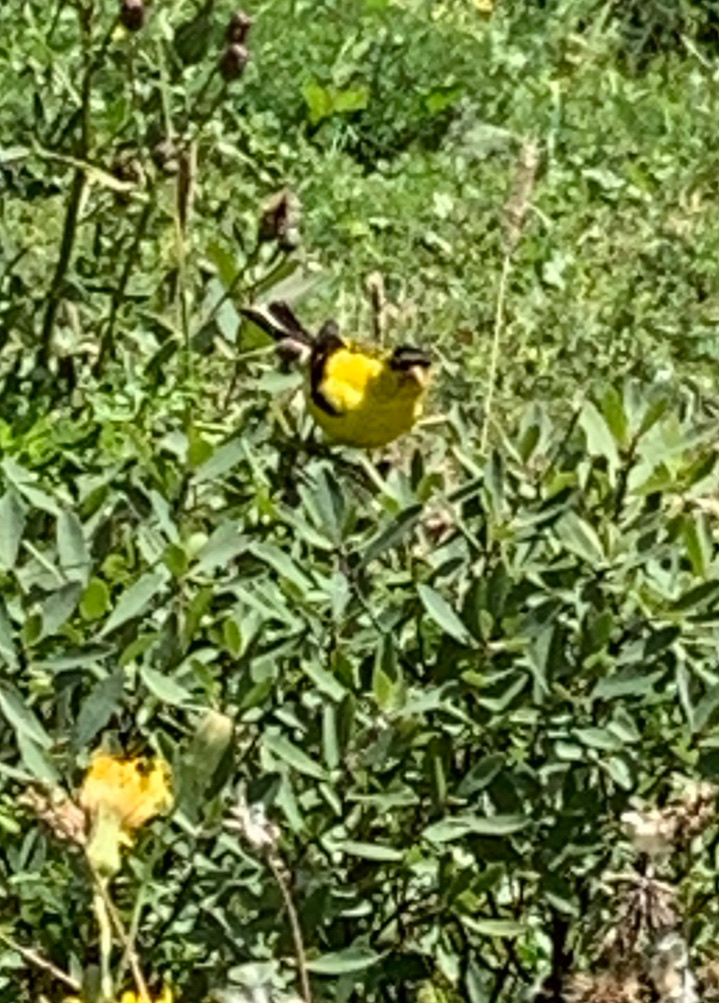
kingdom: Animalia
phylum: Chordata
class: Aves
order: Passeriformes
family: Fringillidae
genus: Spinus
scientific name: Spinus tristis
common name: American goldfinch
